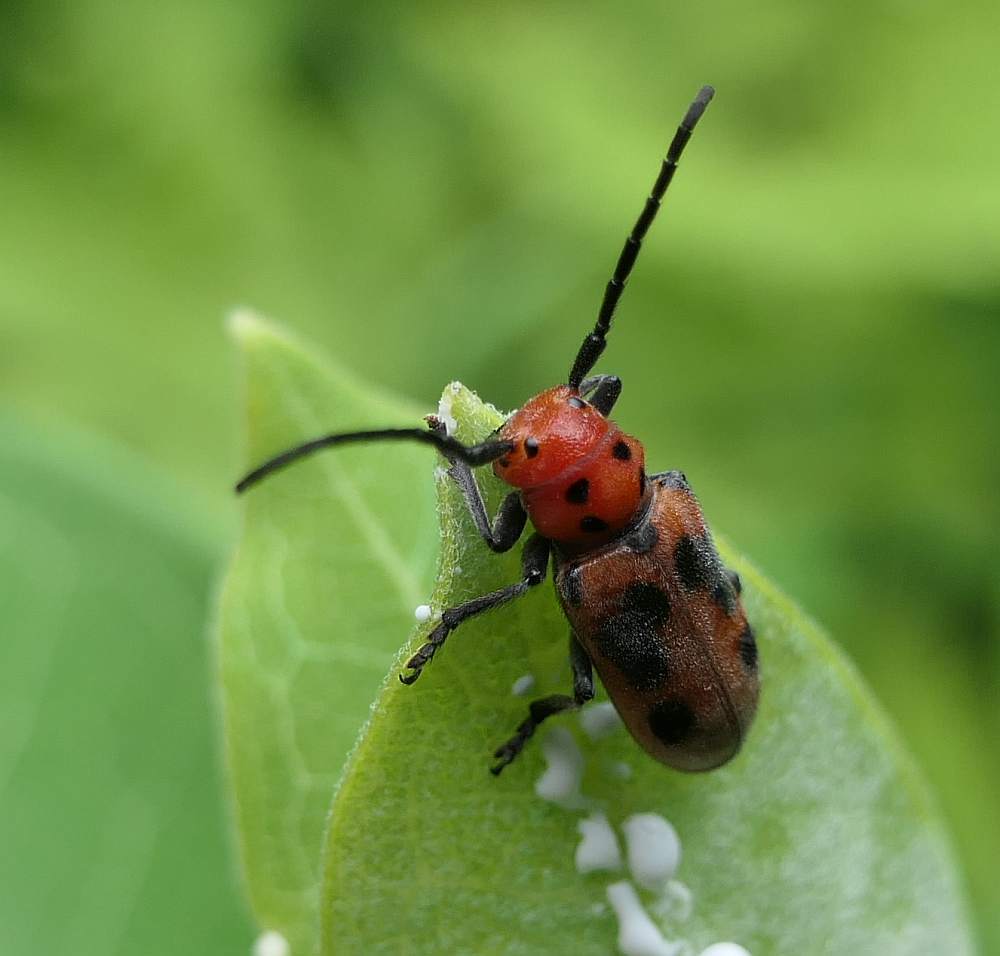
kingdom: Animalia
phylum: Arthropoda
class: Insecta
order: Coleoptera
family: Cerambycidae
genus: Tetraopes
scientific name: Tetraopes tetrophthalmus
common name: Red milkweed beetle
